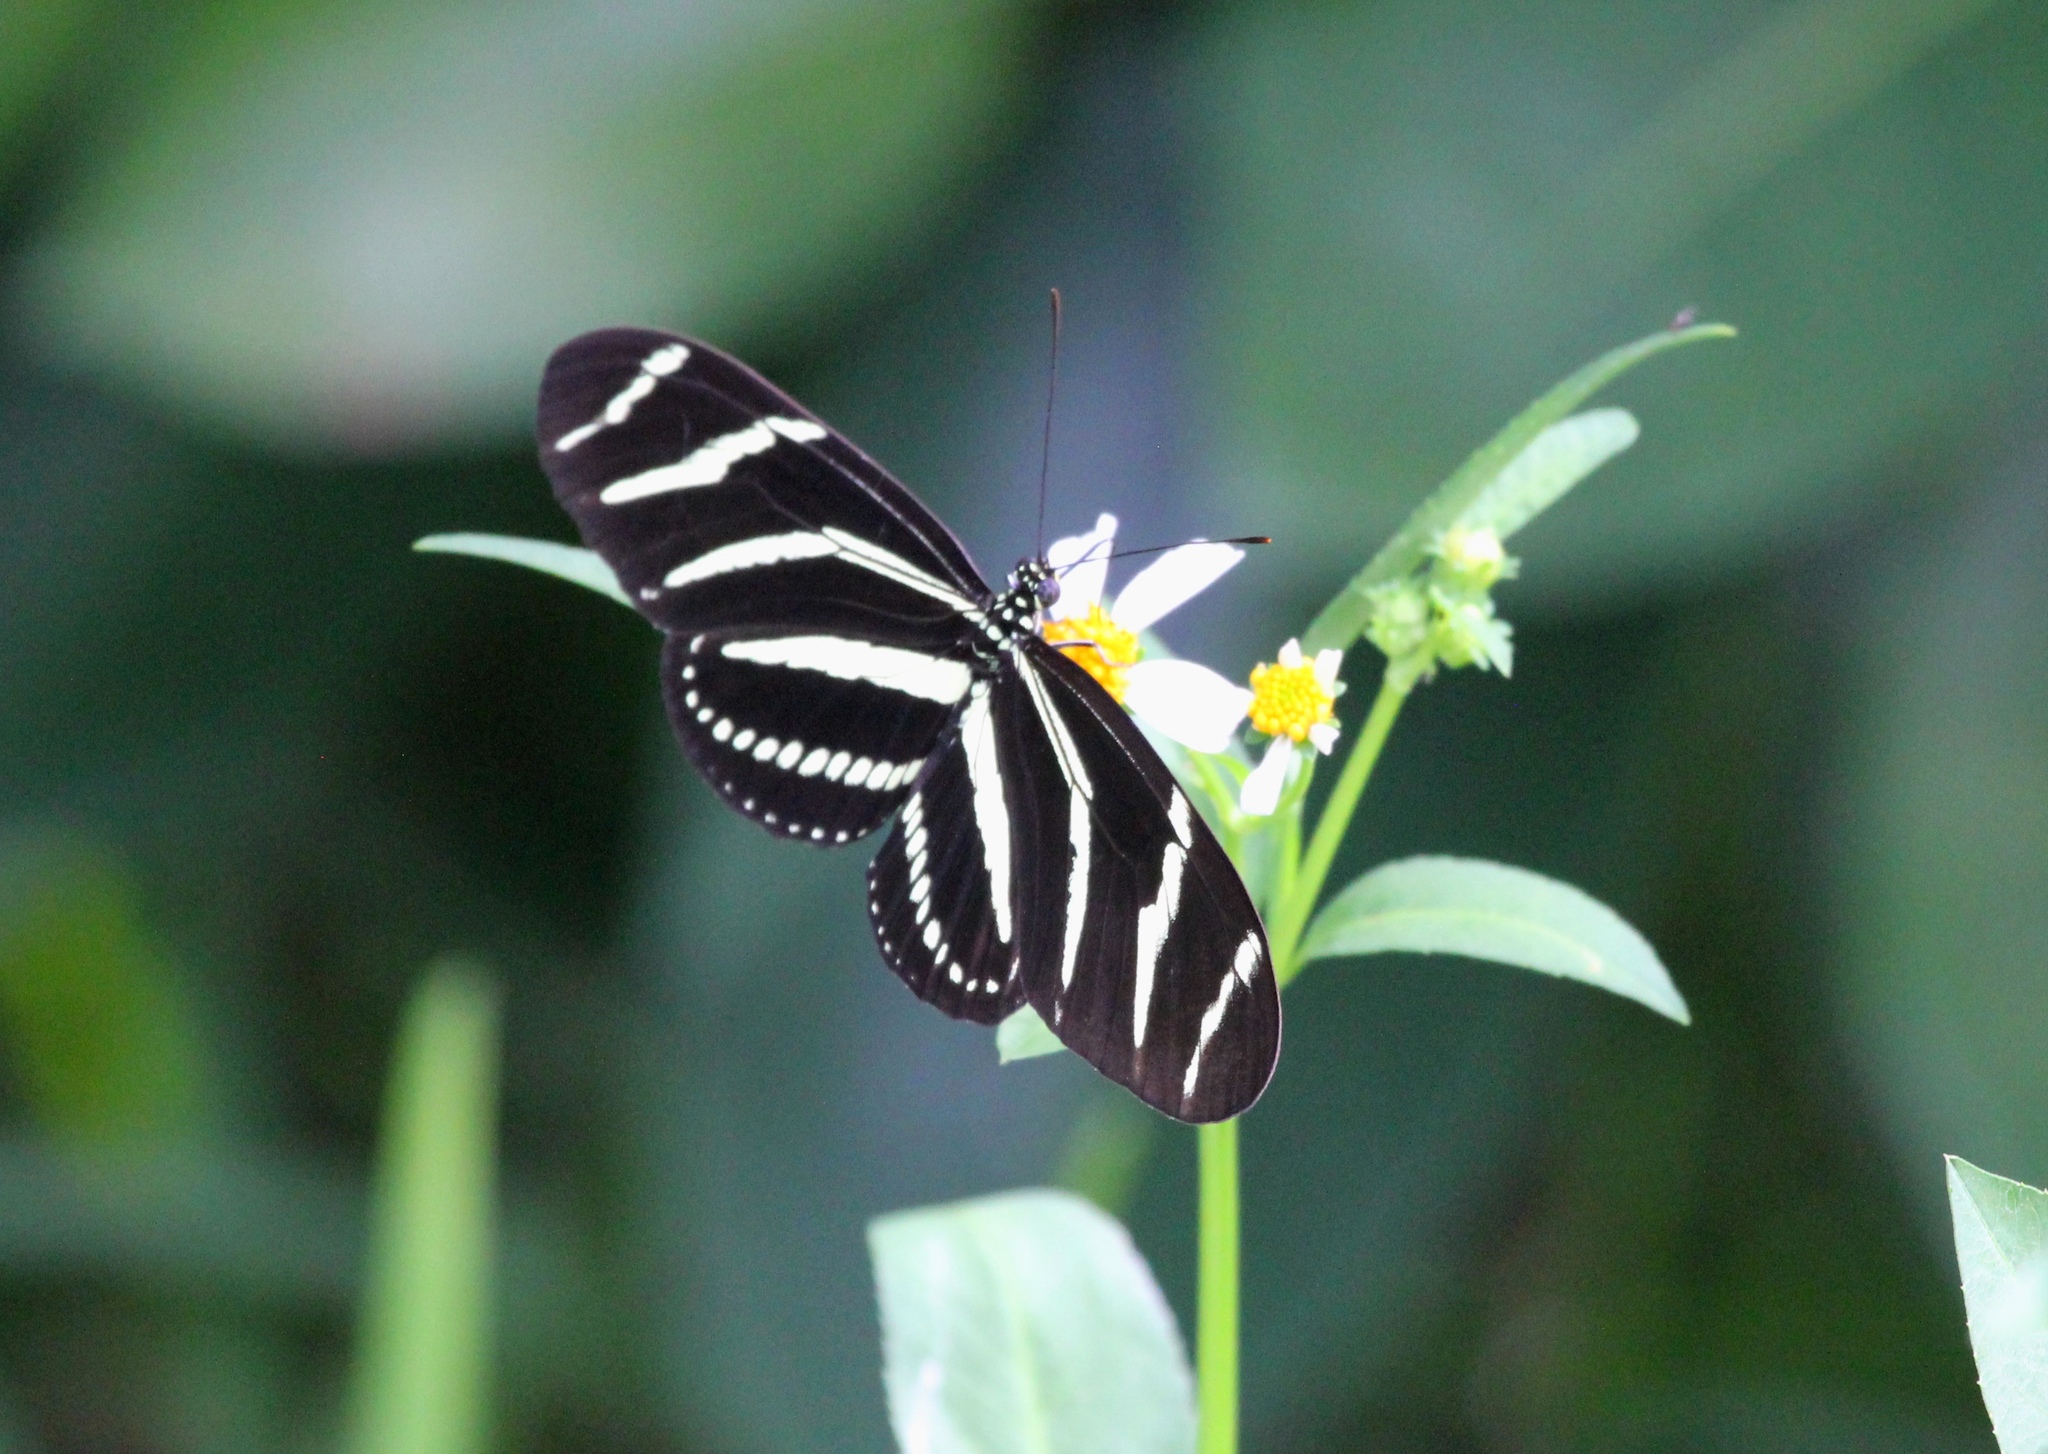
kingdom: Animalia
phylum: Arthropoda
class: Insecta
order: Lepidoptera
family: Nymphalidae
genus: Heliconius
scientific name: Heliconius charithonia
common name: Zebra long wing
